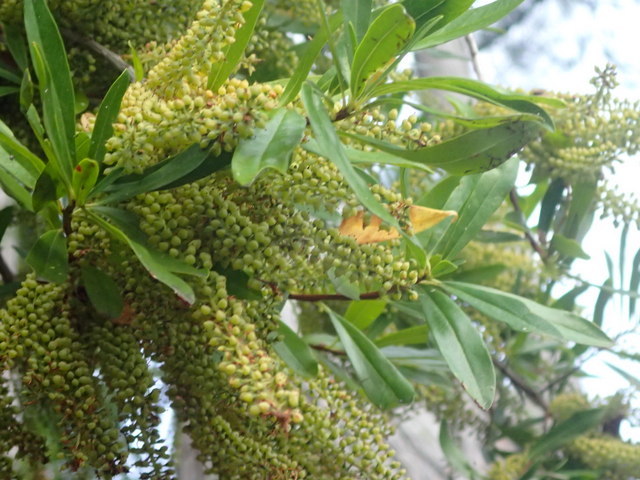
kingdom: Plantae
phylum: Tracheophyta
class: Magnoliopsida
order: Ericales
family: Cyrillaceae
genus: Cyrilla
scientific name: Cyrilla racemiflora
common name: Black titi
